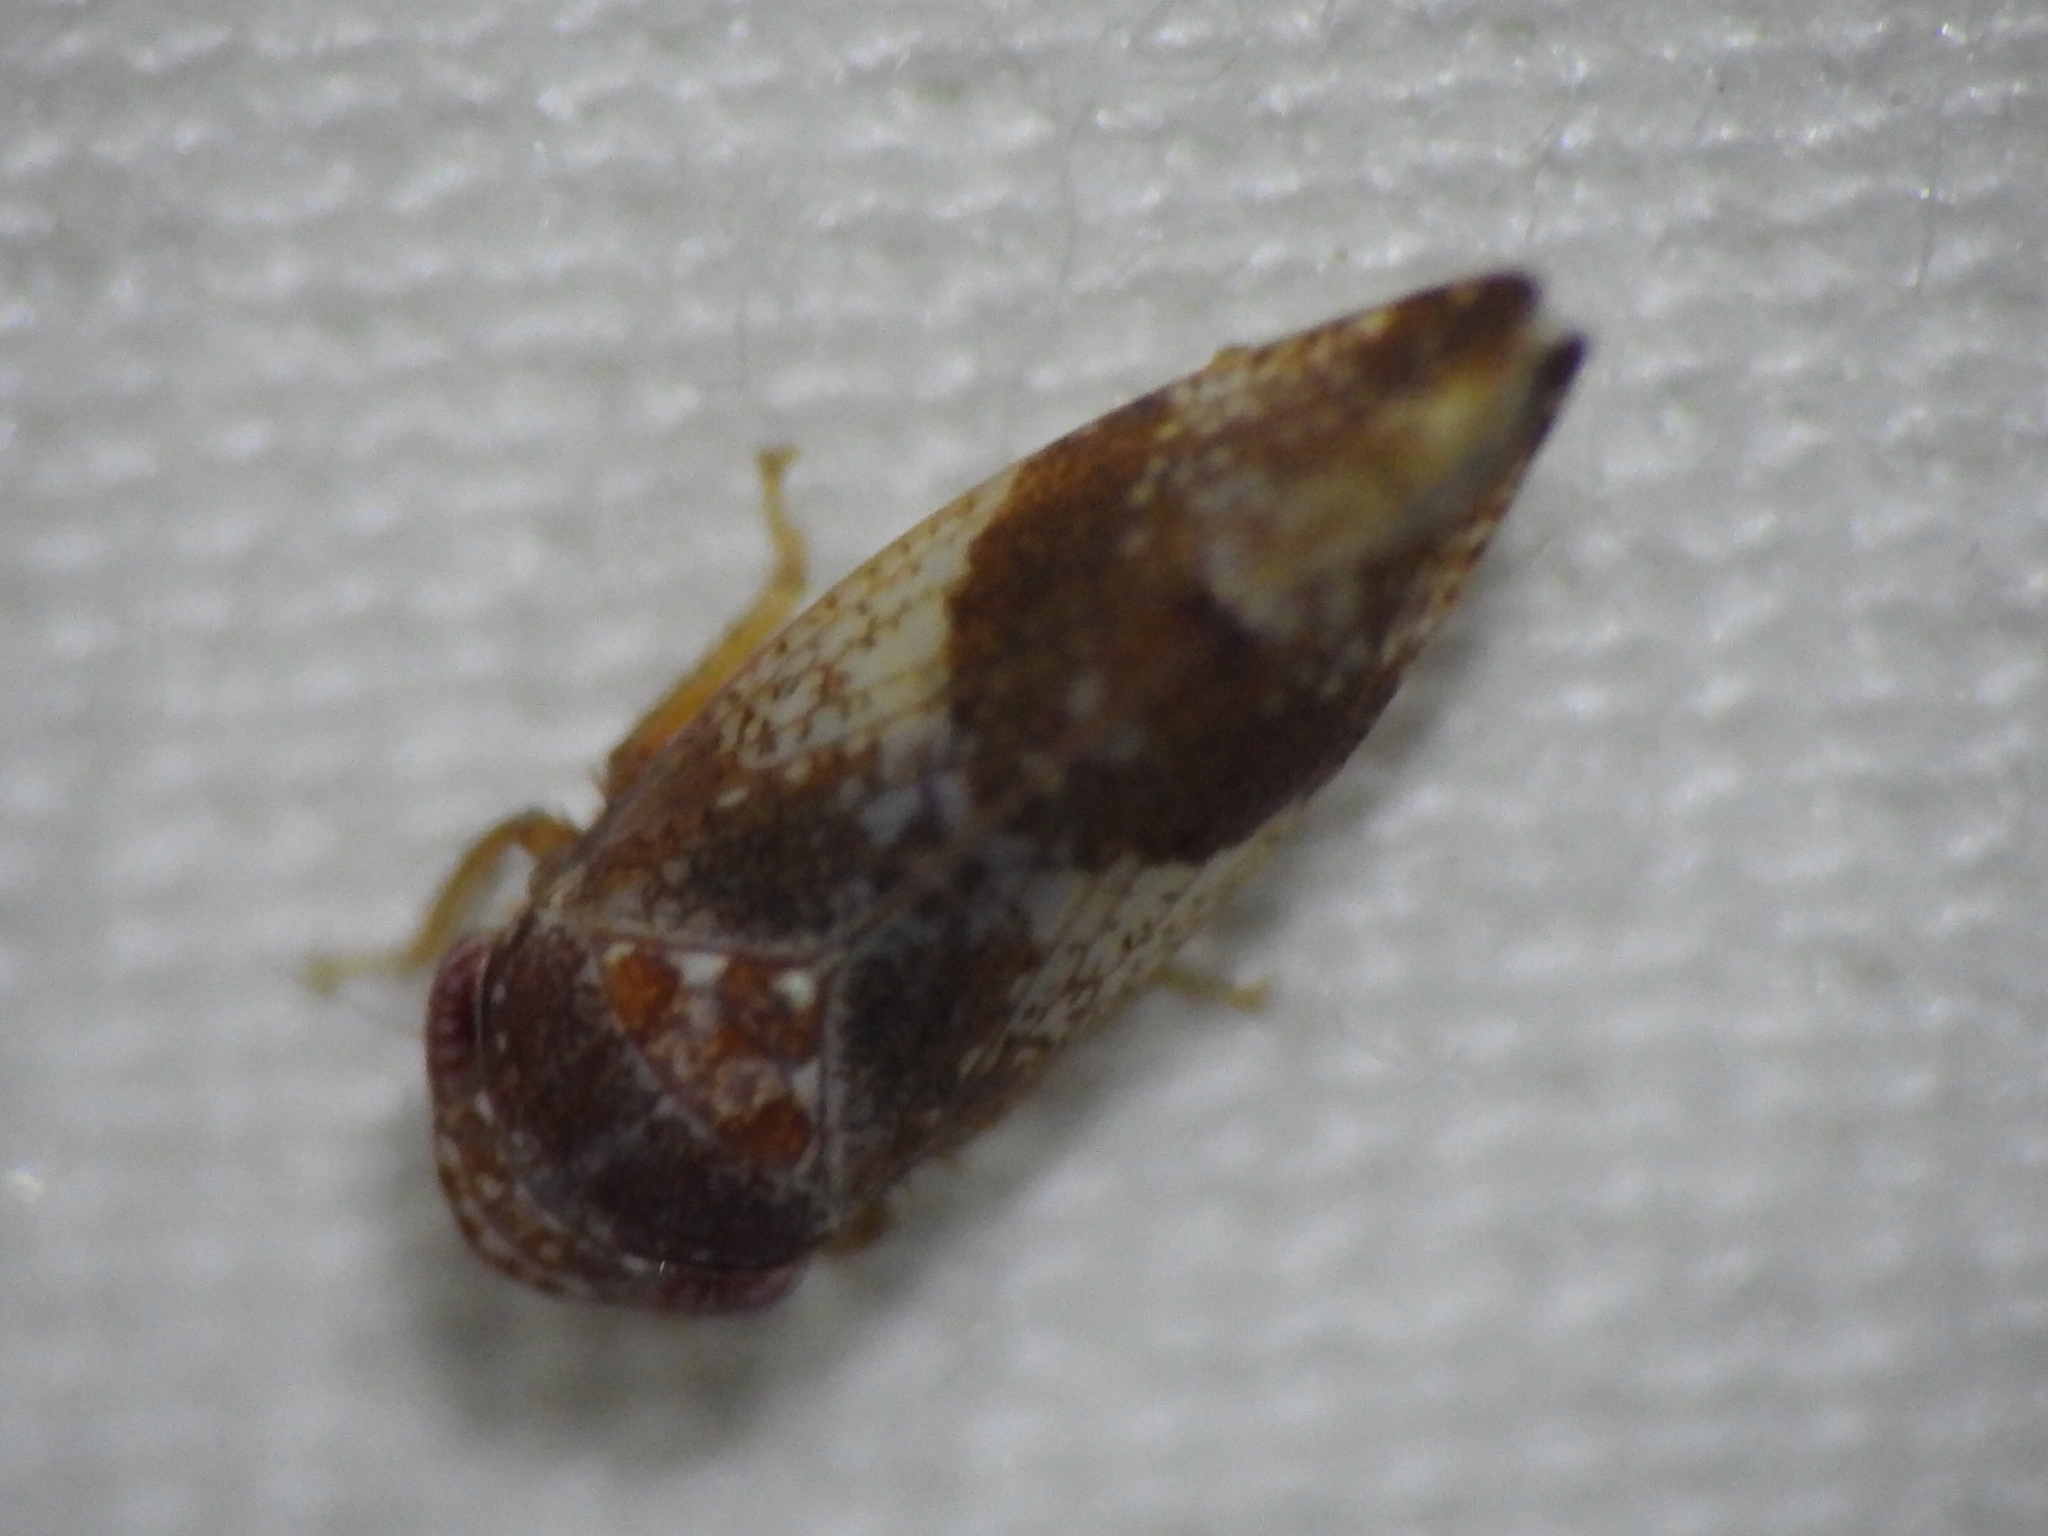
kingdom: Animalia
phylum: Arthropoda
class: Insecta
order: Hemiptera
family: Cicadellidae
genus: Norvellina
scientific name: Norvellina helenae
